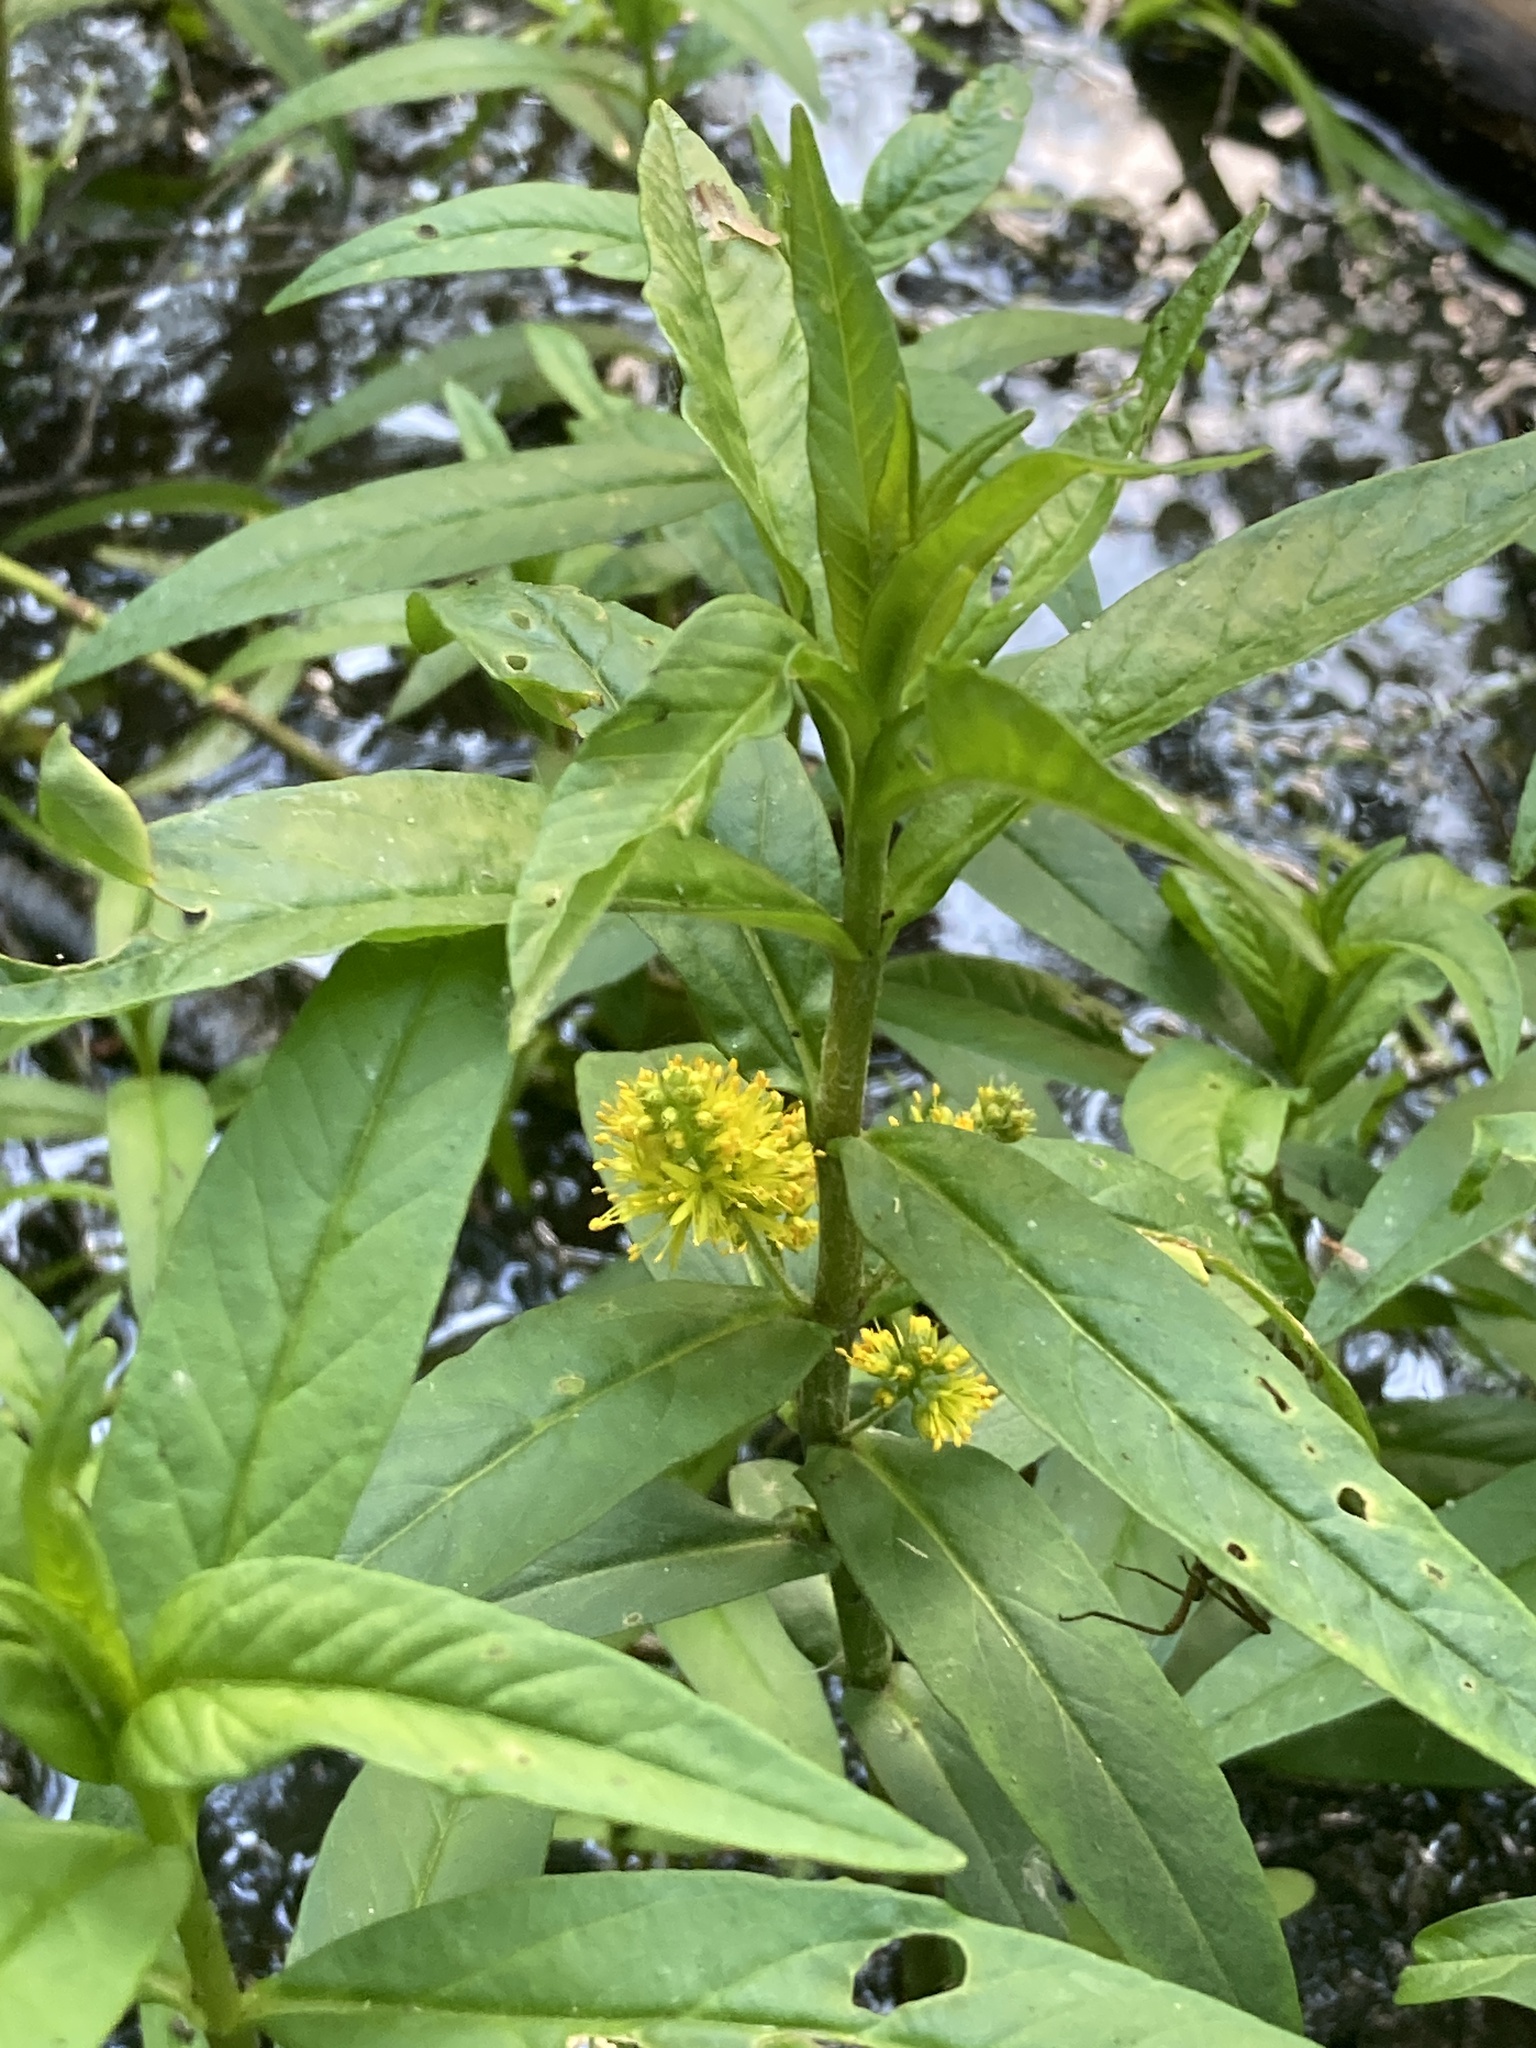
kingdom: Plantae
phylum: Tracheophyta
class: Magnoliopsida
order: Ericales
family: Primulaceae
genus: Lysimachia
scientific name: Lysimachia thyrsiflora
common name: Tufted loosestrife
